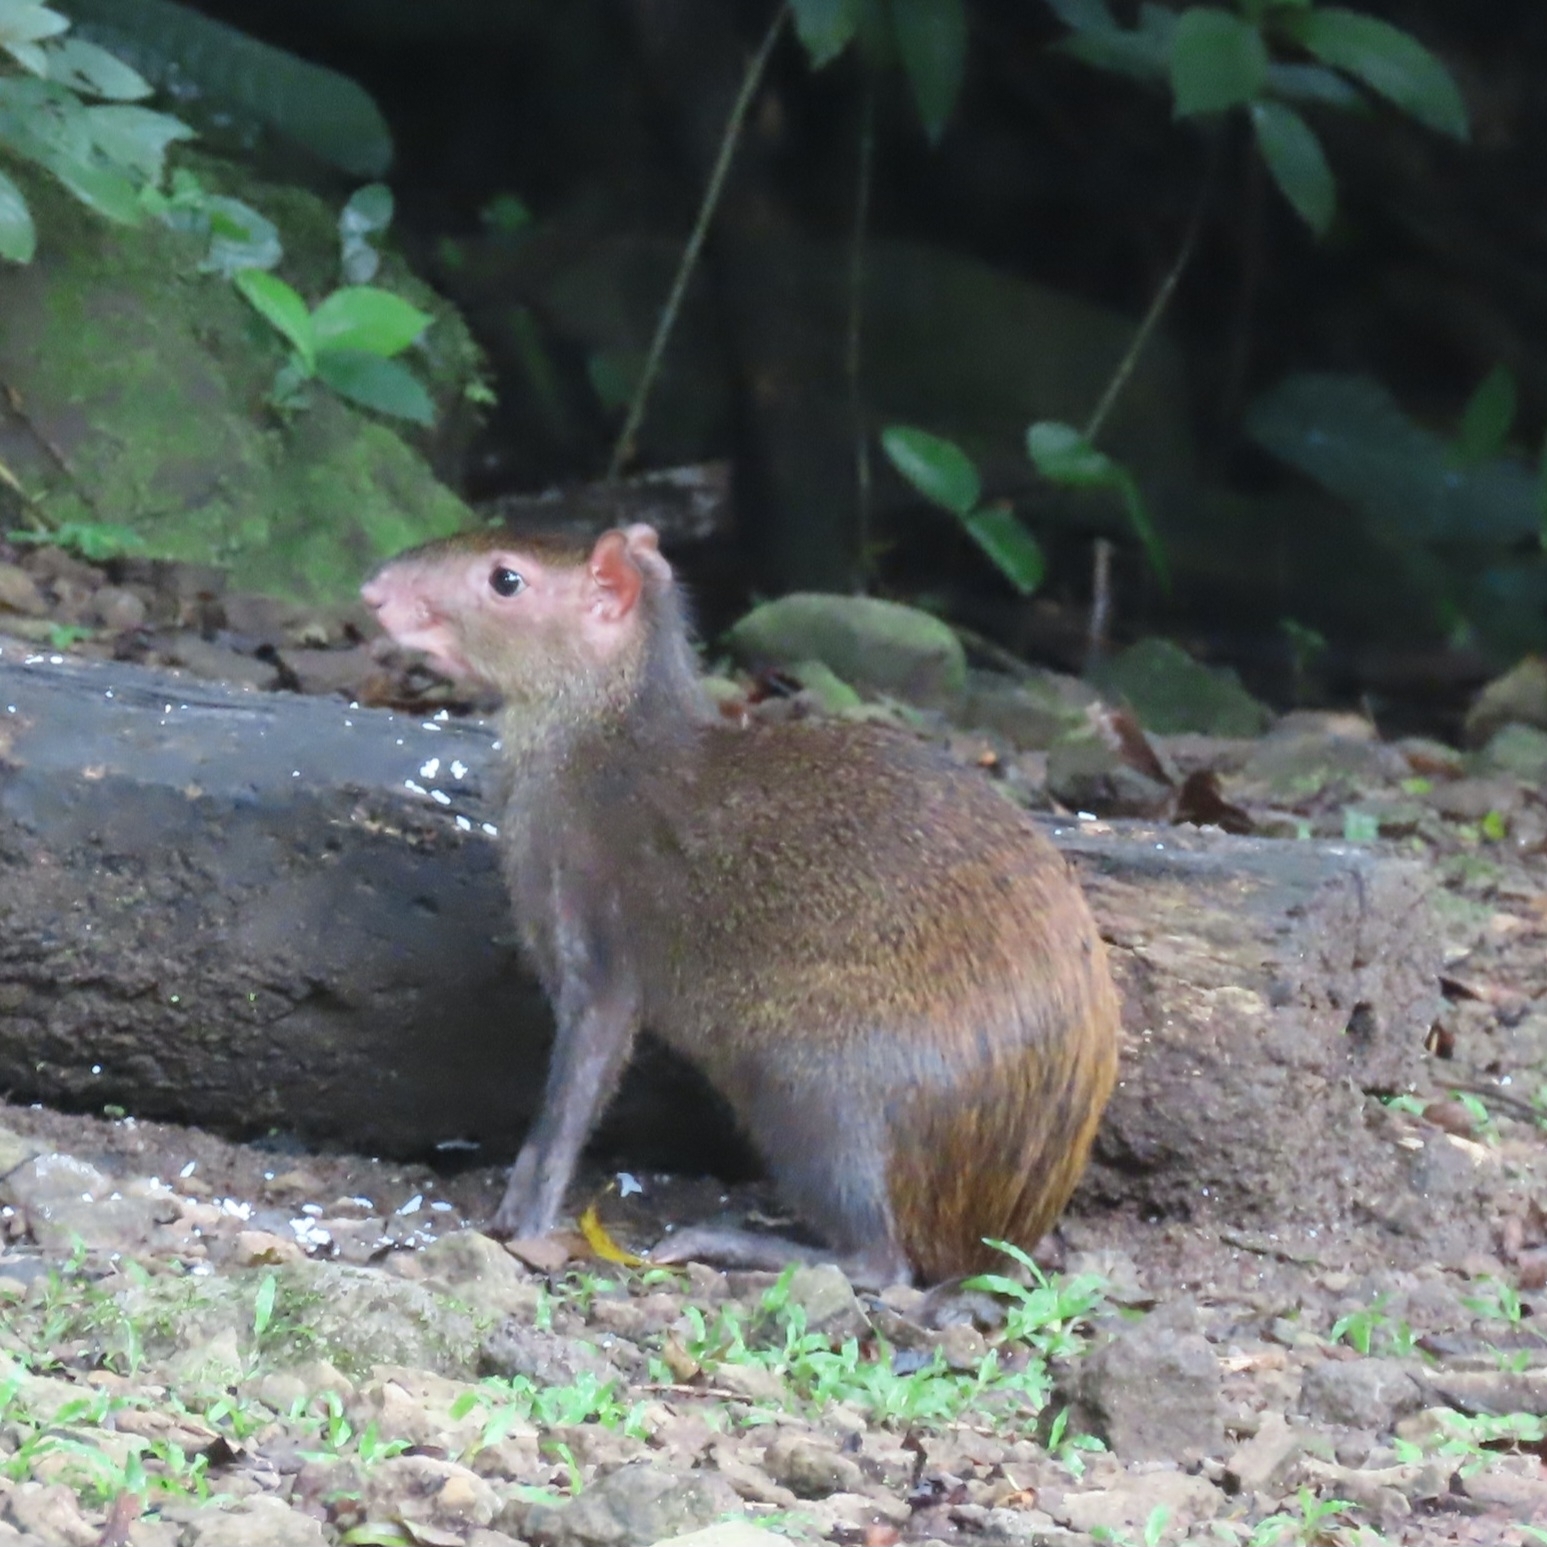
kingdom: Animalia
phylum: Chordata
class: Mammalia
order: Rodentia
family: Dasyproctidae
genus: Dasyprocta
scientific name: Dasyprocta punctata
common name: Central american agouti
